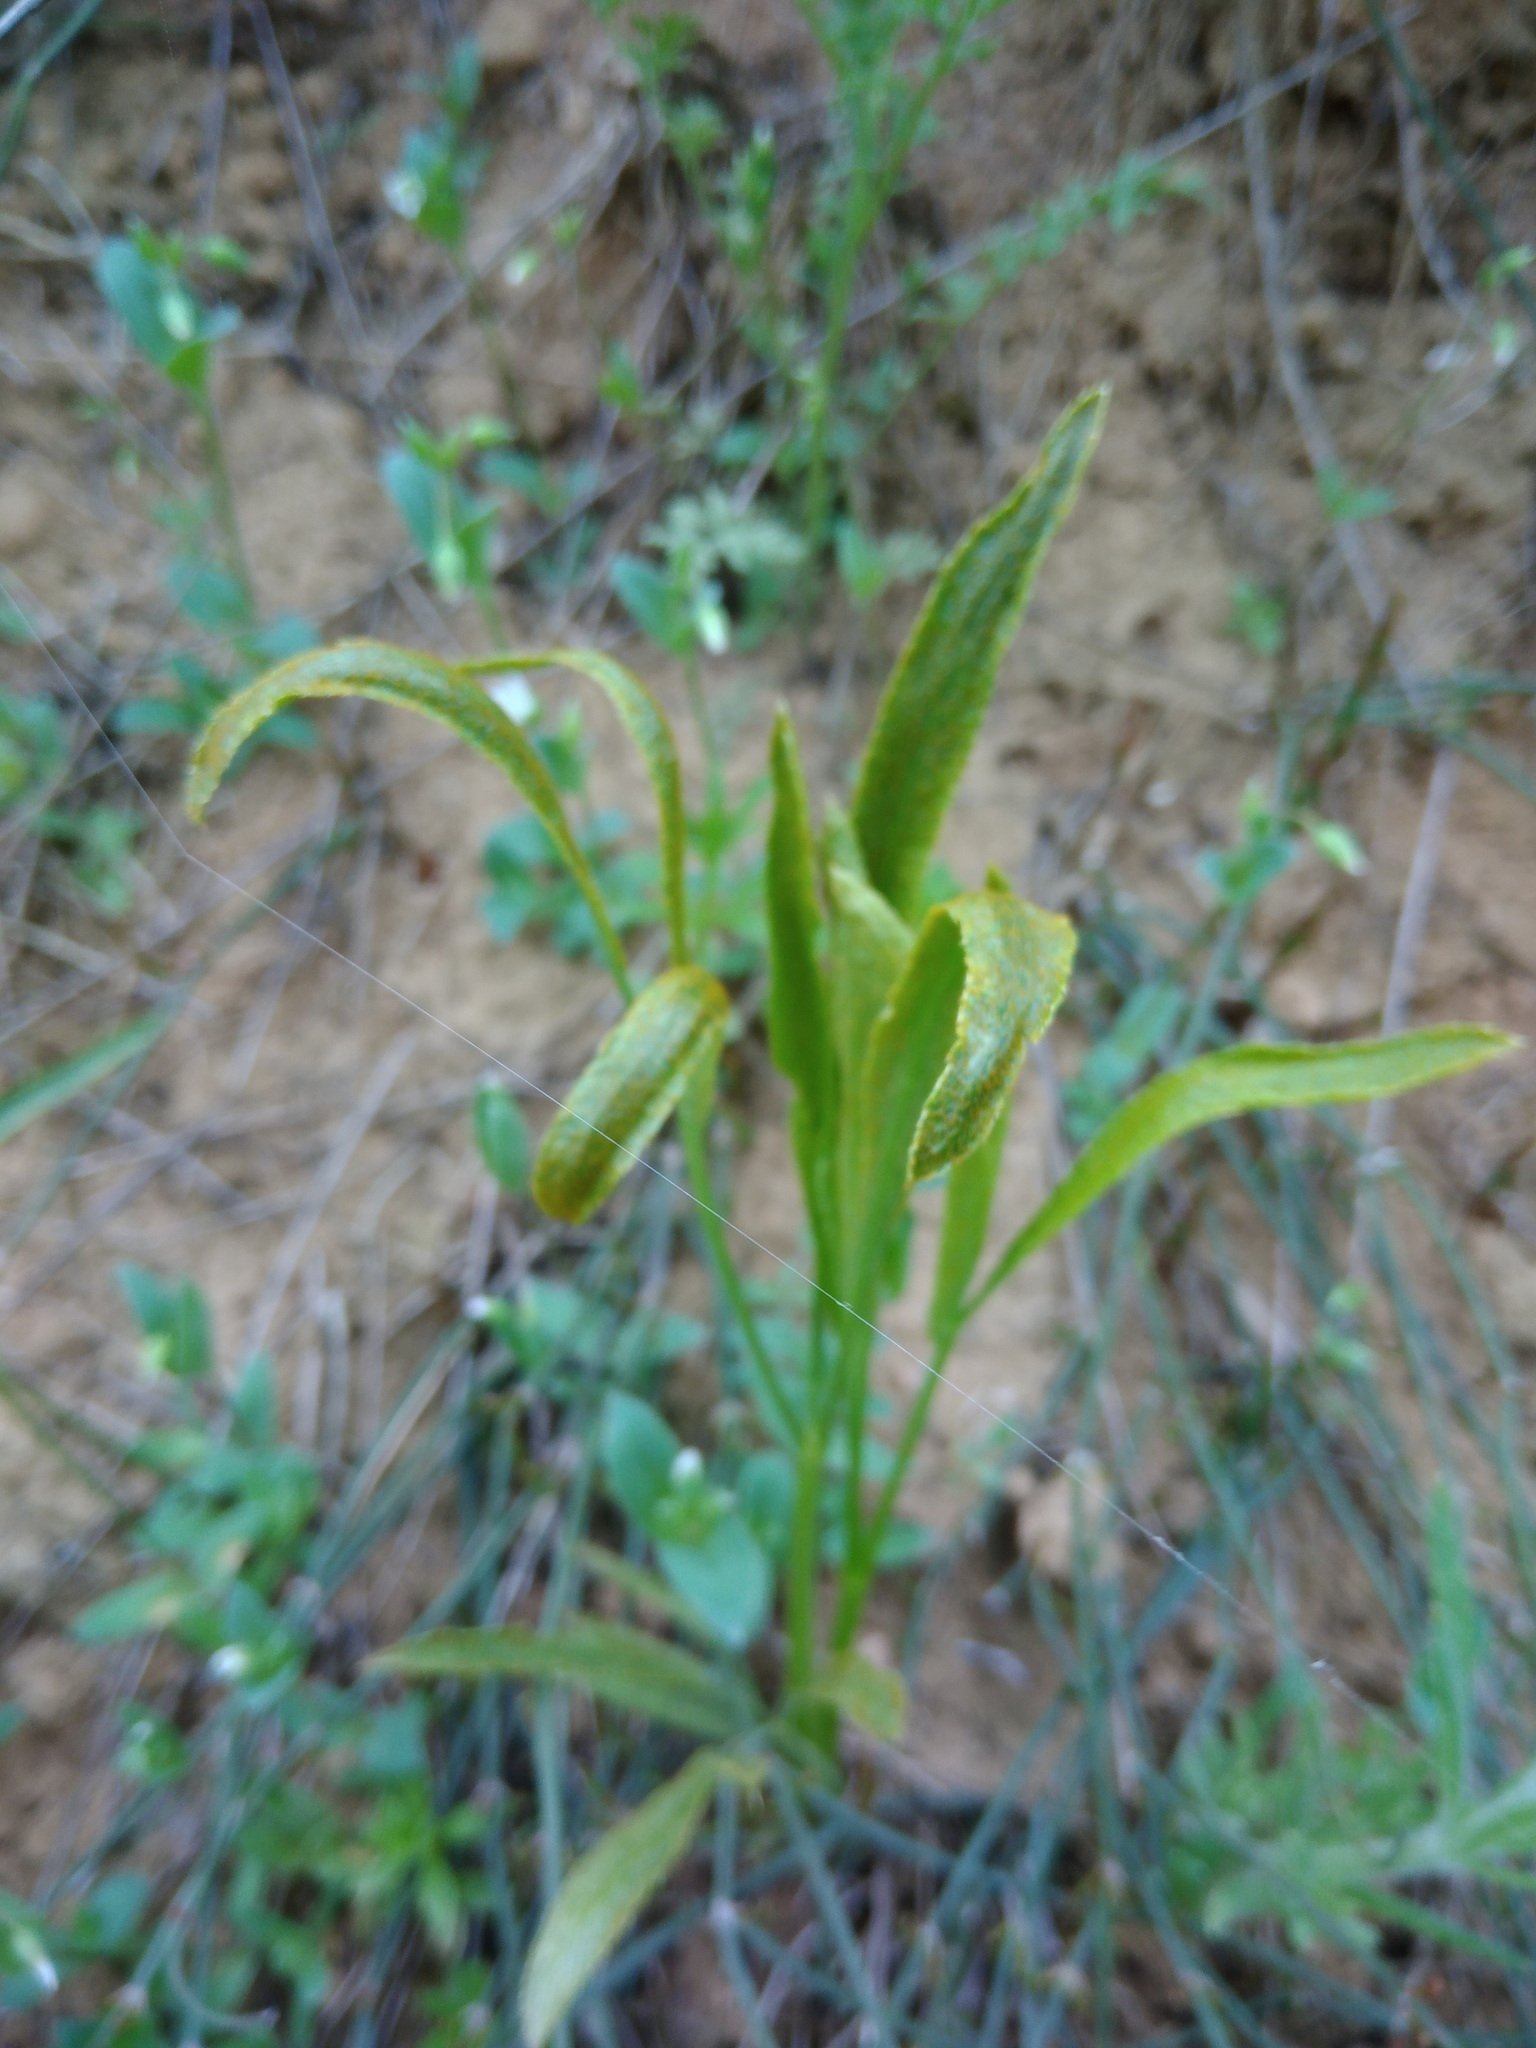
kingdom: Plantae
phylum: Tracheophyta
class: Magnoliopsida
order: Apiales
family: Apiaceae
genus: Falcaria
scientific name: Falcaria vulgaris
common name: Longleaf
